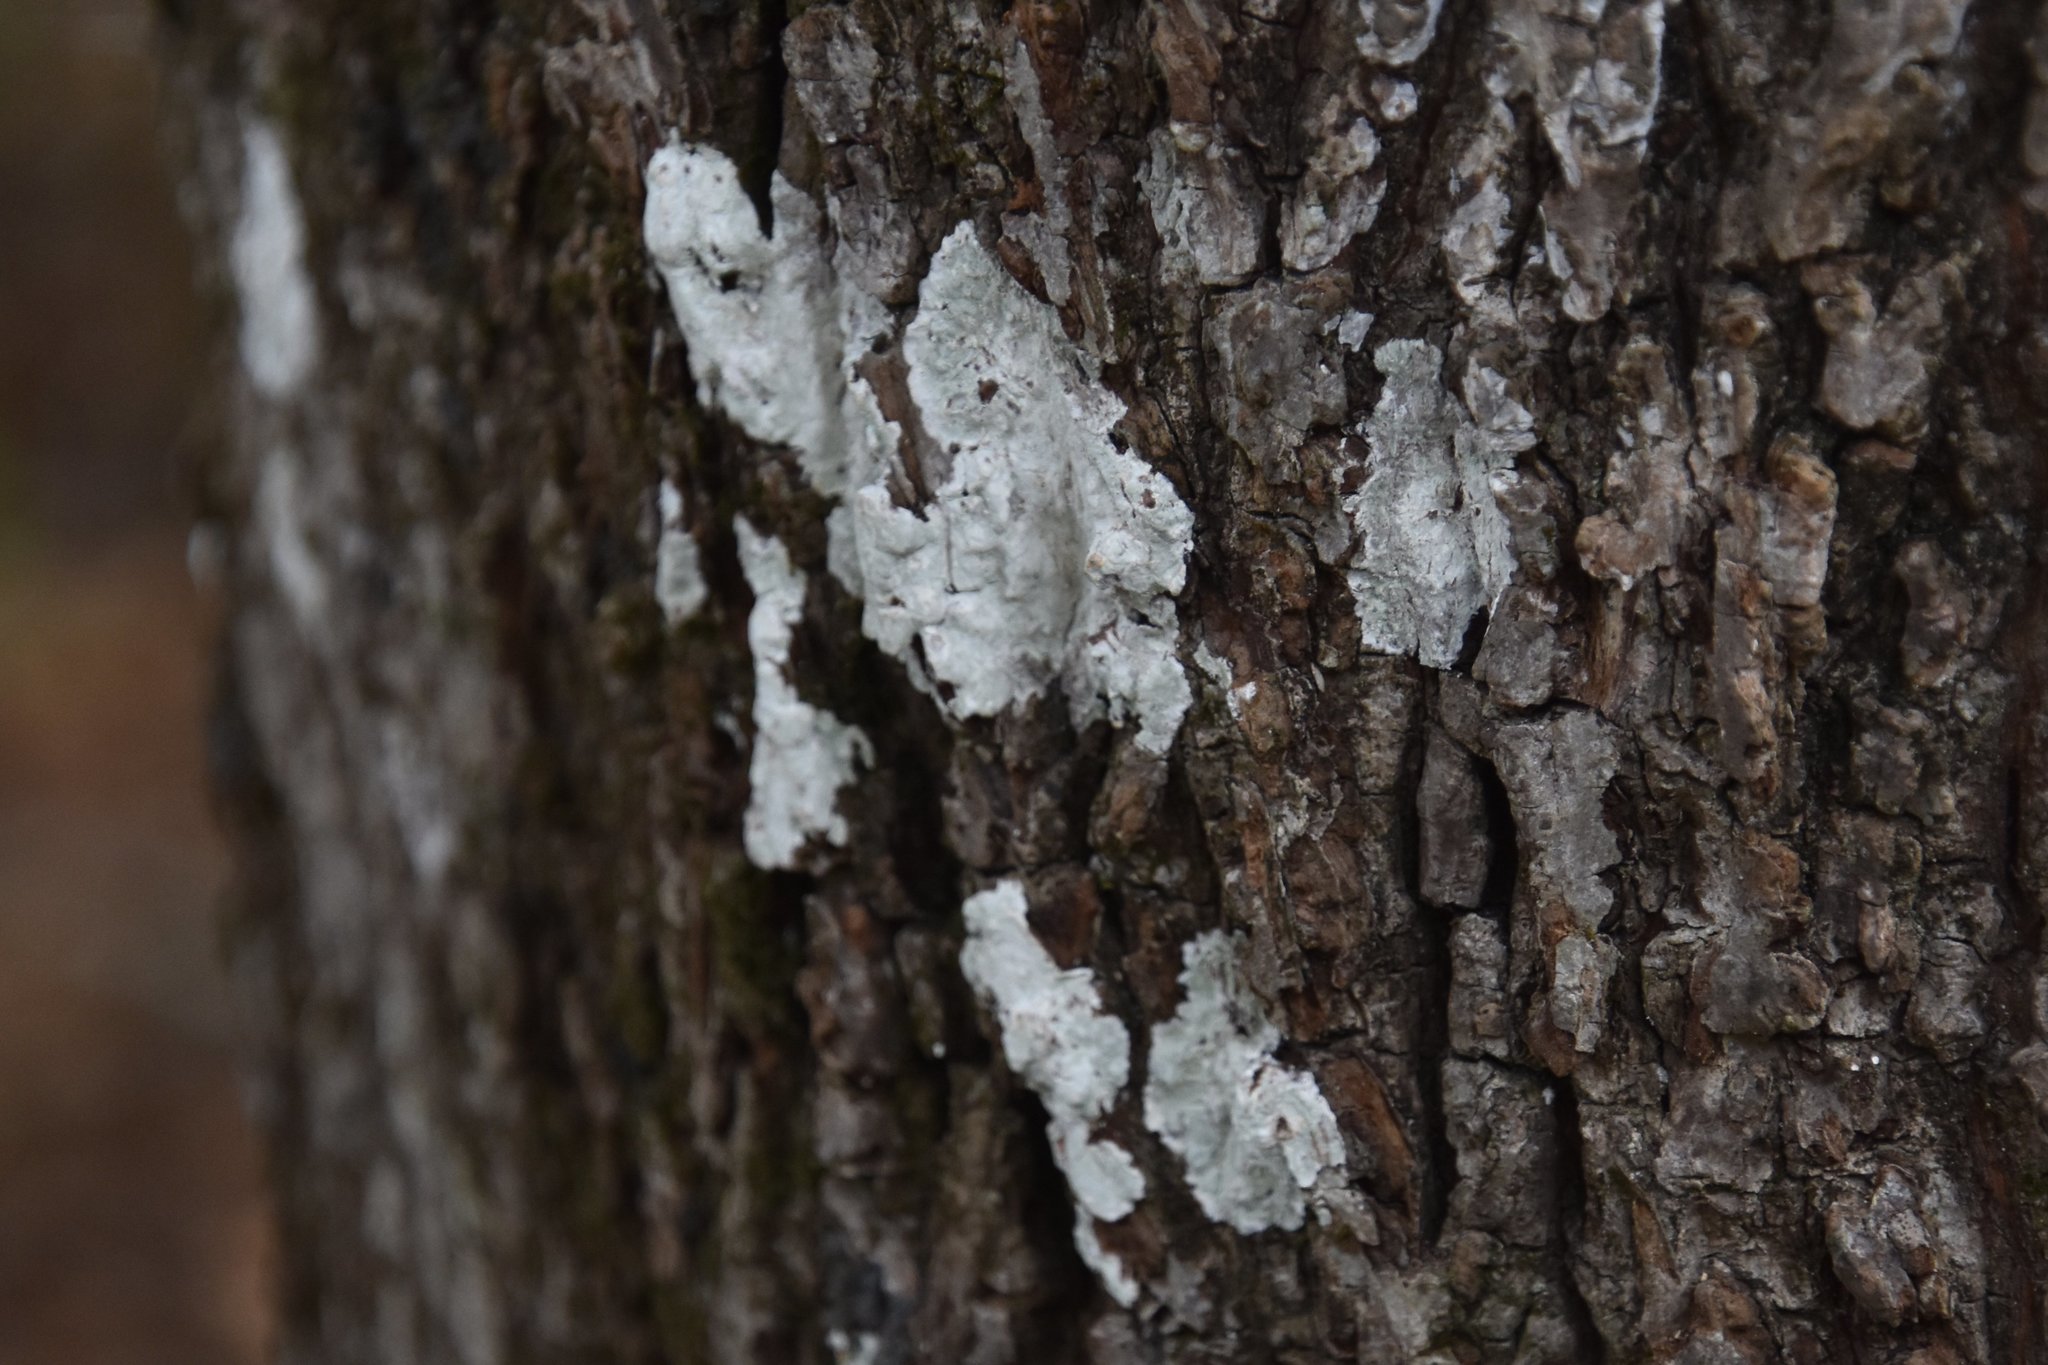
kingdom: Fungi
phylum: Ascomycota
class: Arthoniomycetes
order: Arthoniales
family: Arthoniaceae
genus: Cryptothecia
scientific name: Cryptothecia striata
